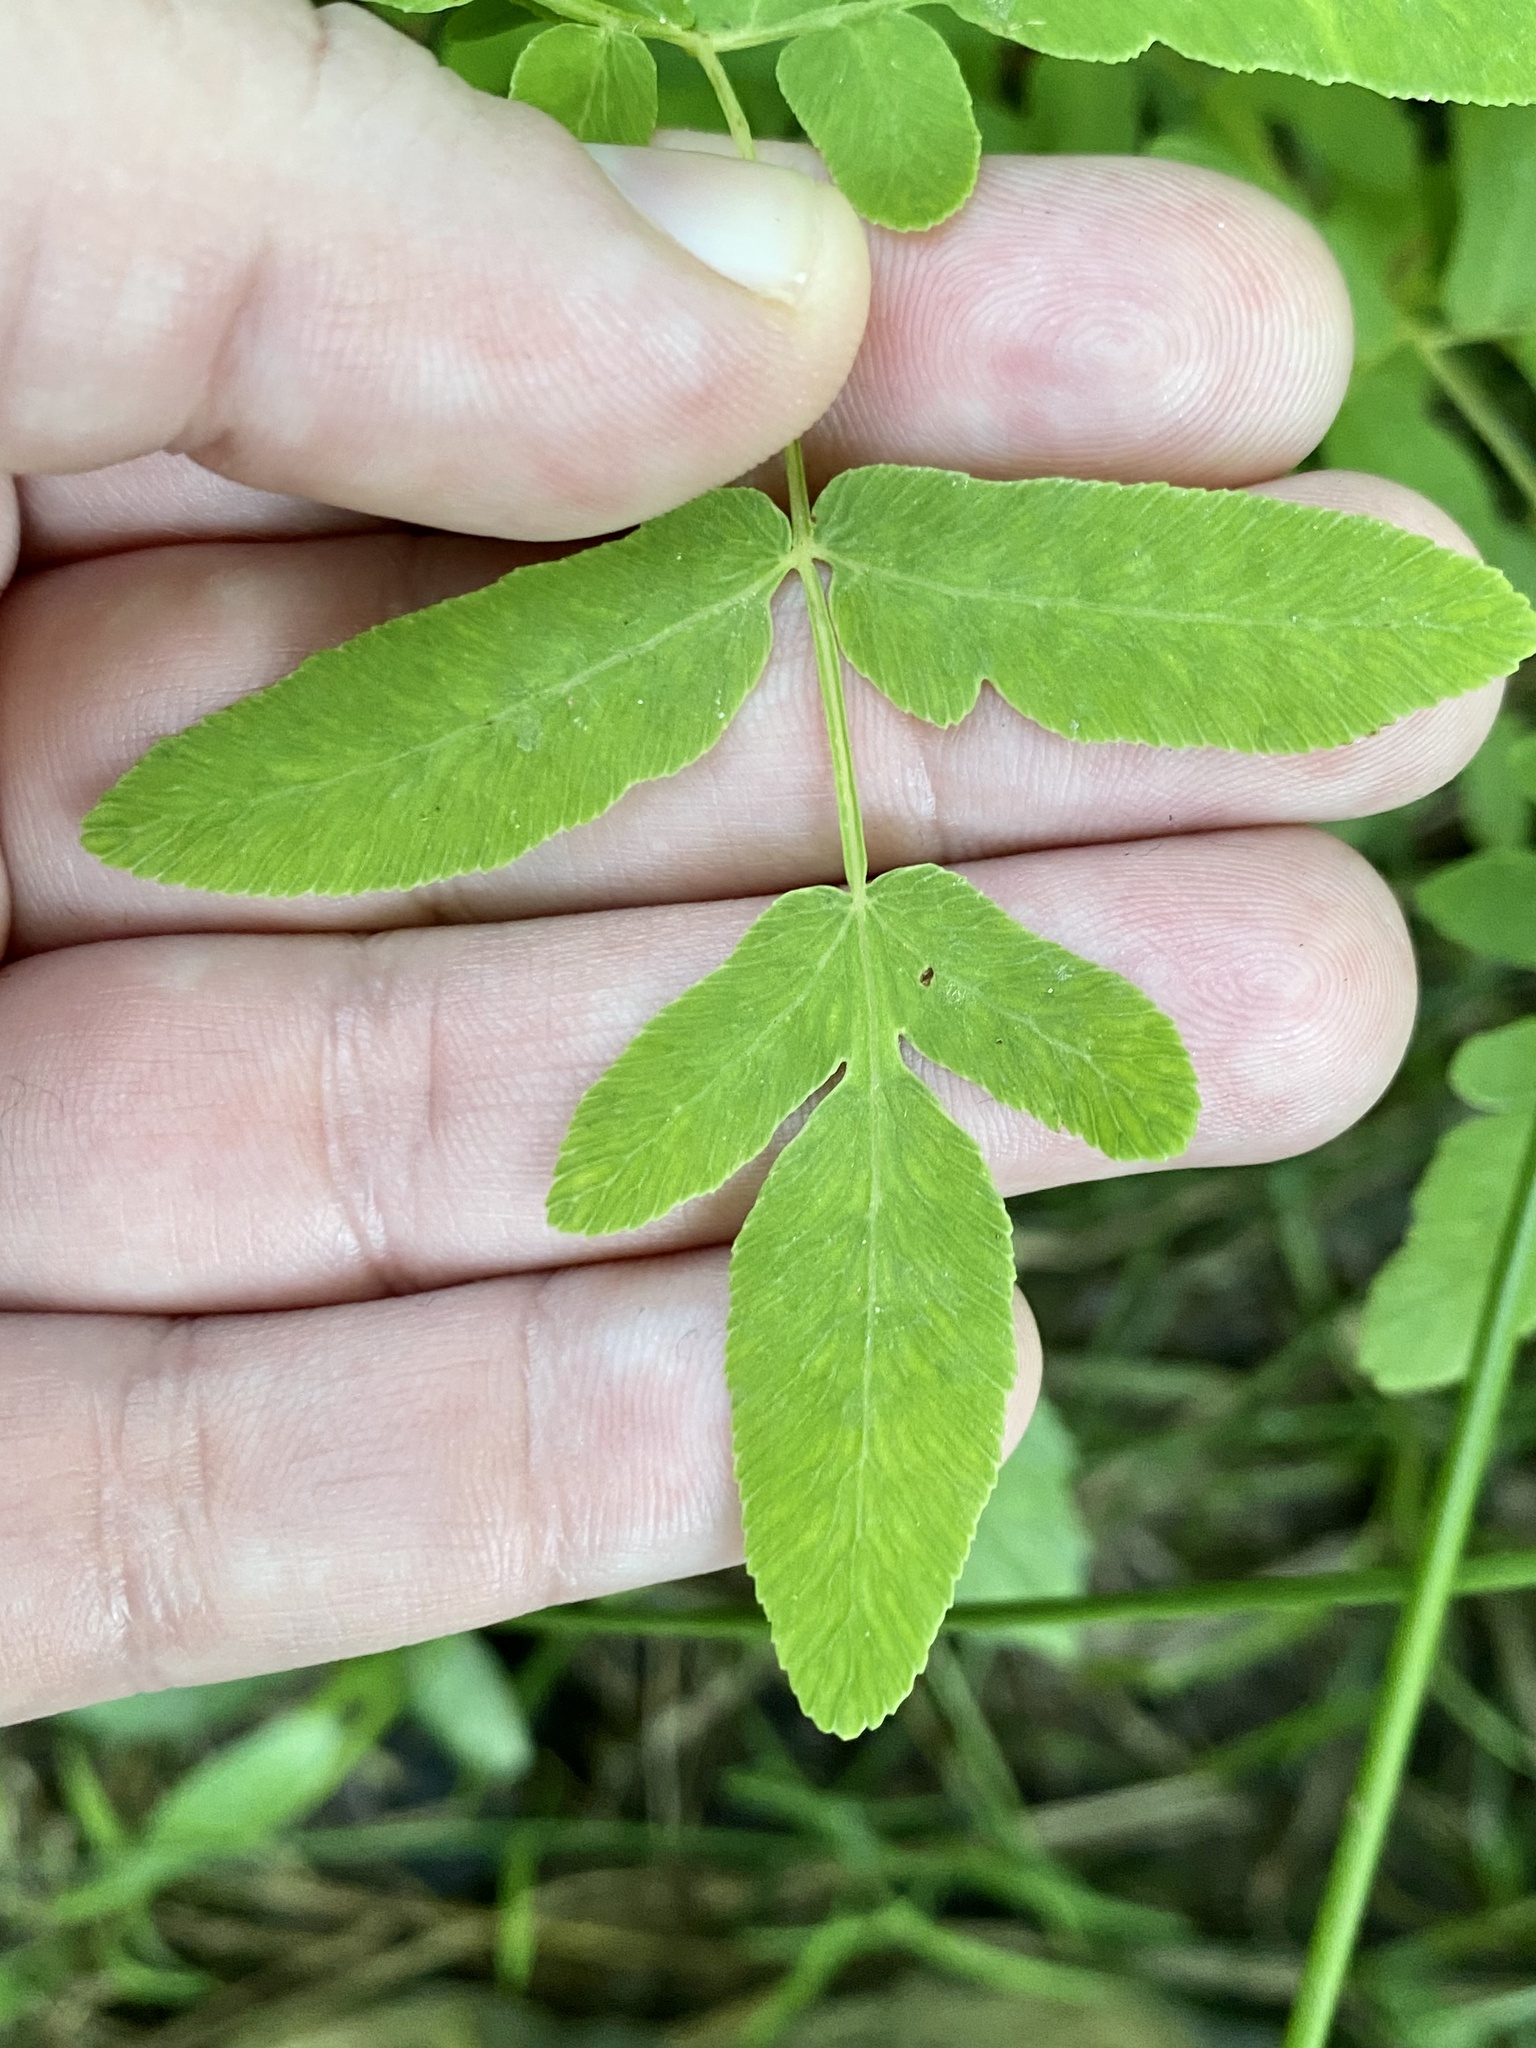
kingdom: Plantae
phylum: Tracheophyta
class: Polypodiopsida
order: Osmundales
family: Osmundaceae
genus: Osmunda
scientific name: Osmunda spectabilis
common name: American royal fern
